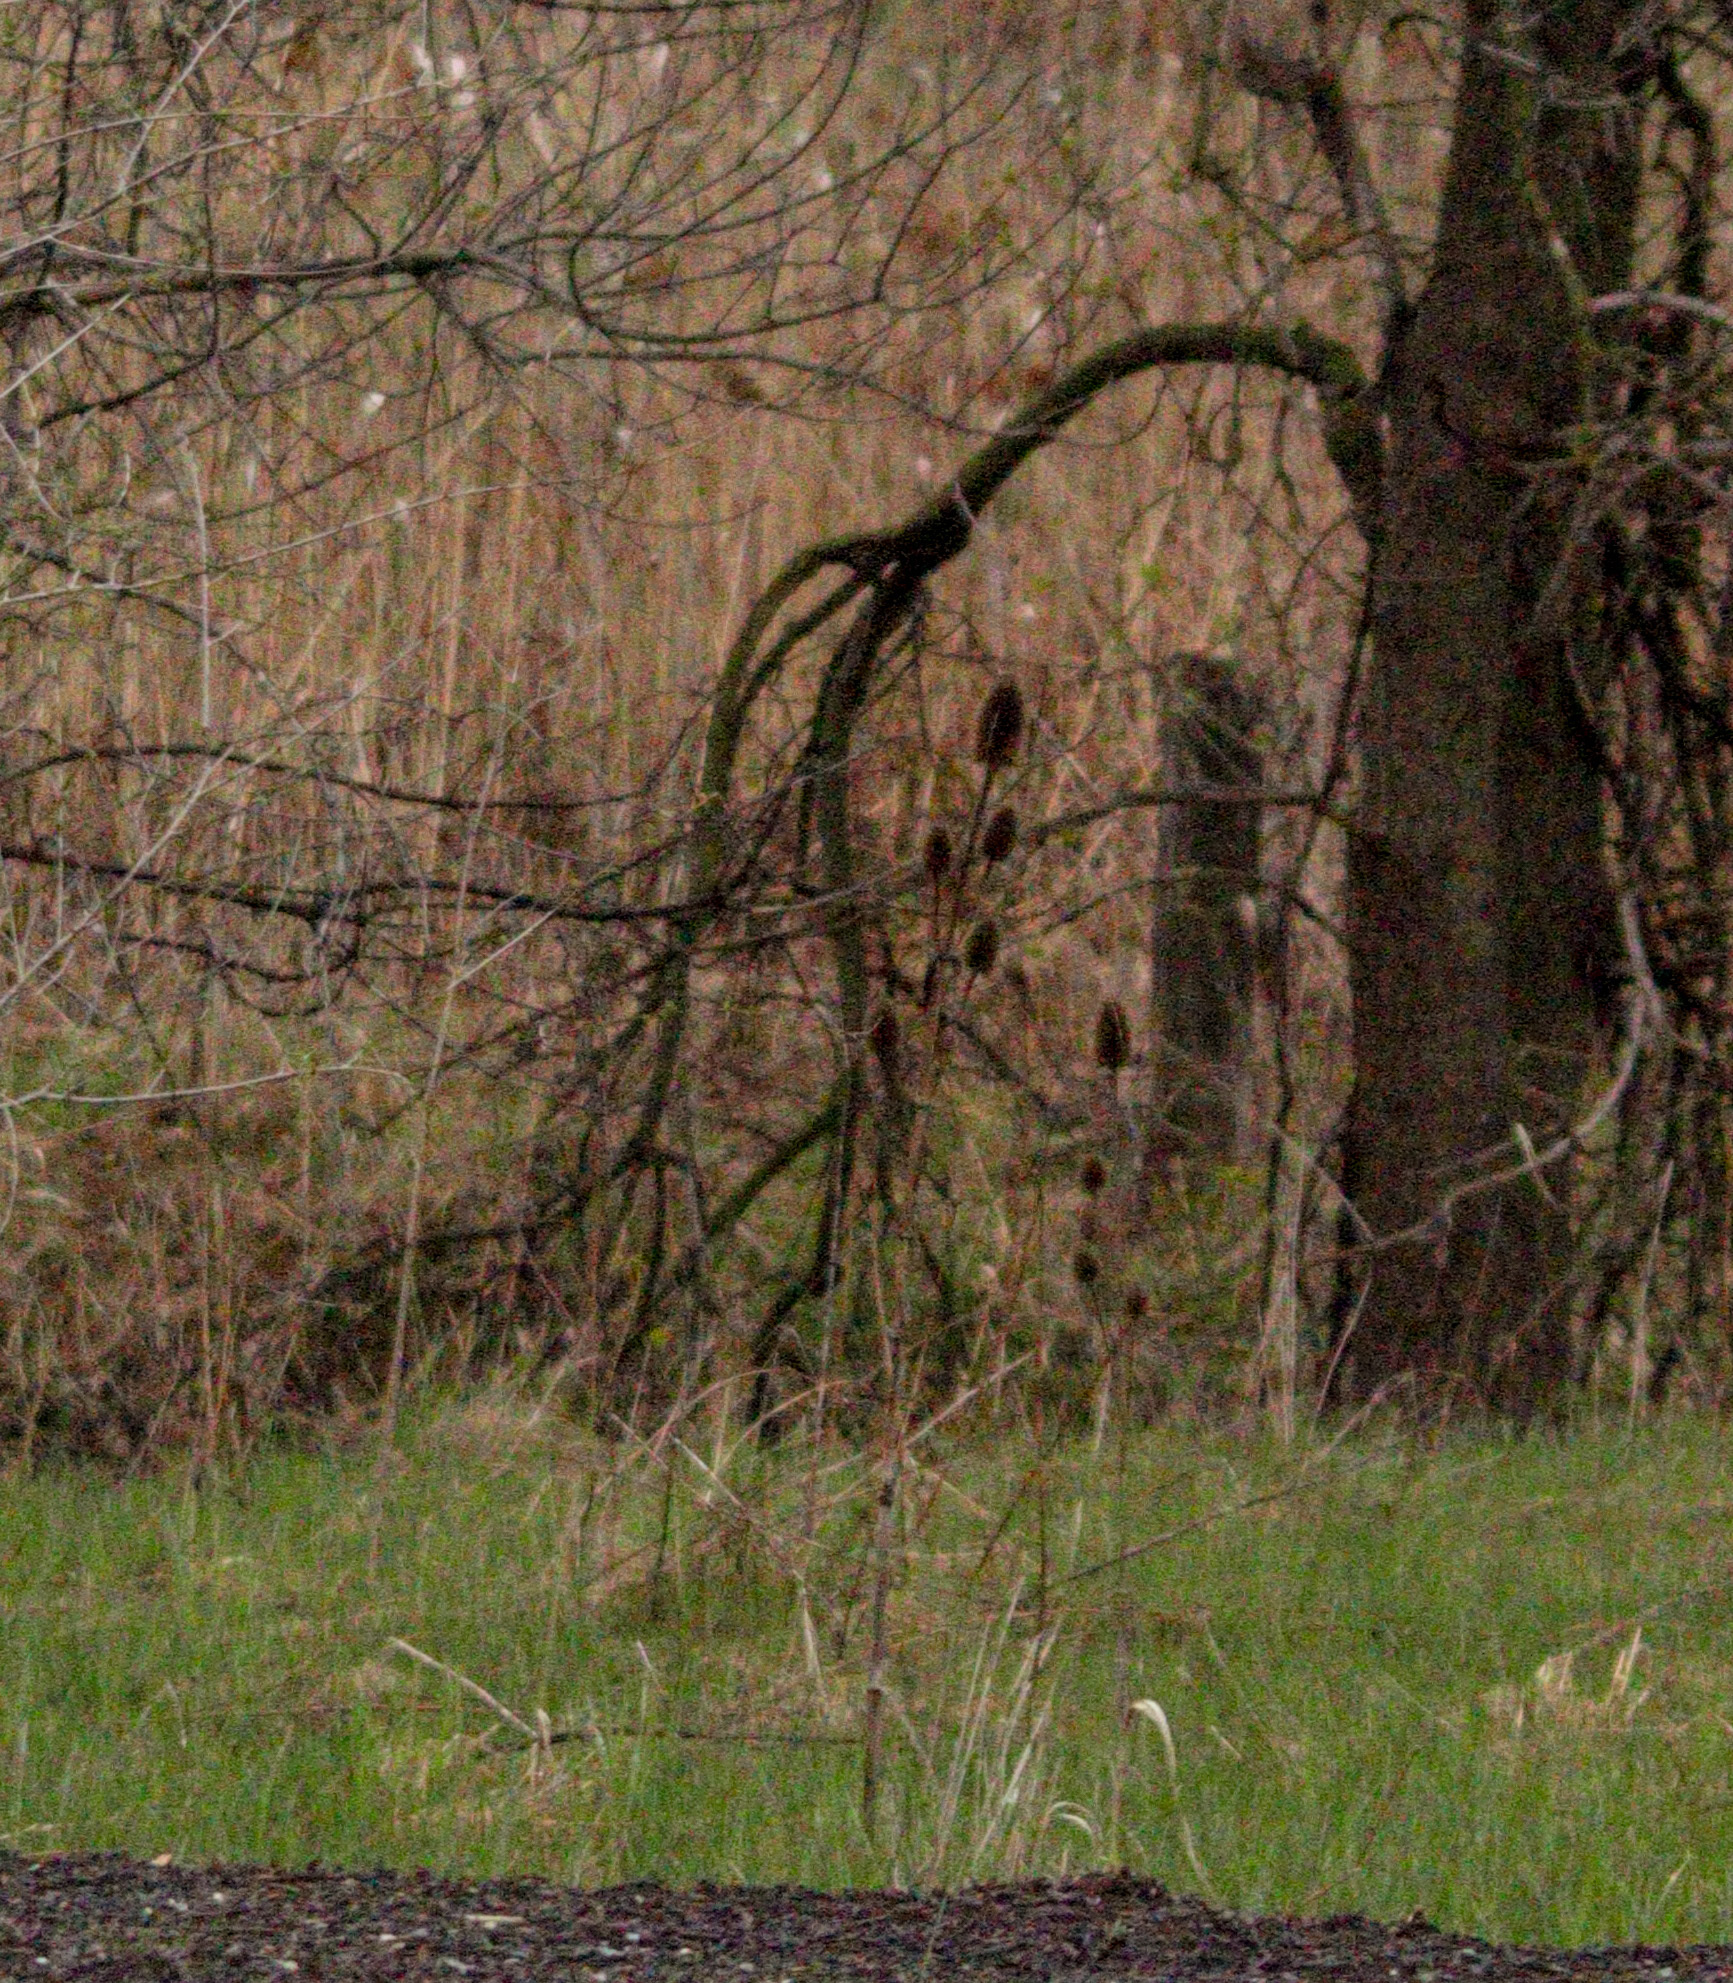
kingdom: Plantae
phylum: Tracheophyta
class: Magnoliopsida
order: Dipsacales
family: Caprifoliaceae
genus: Dipsacus
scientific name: Dipsacus fullonum
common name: Teasel
